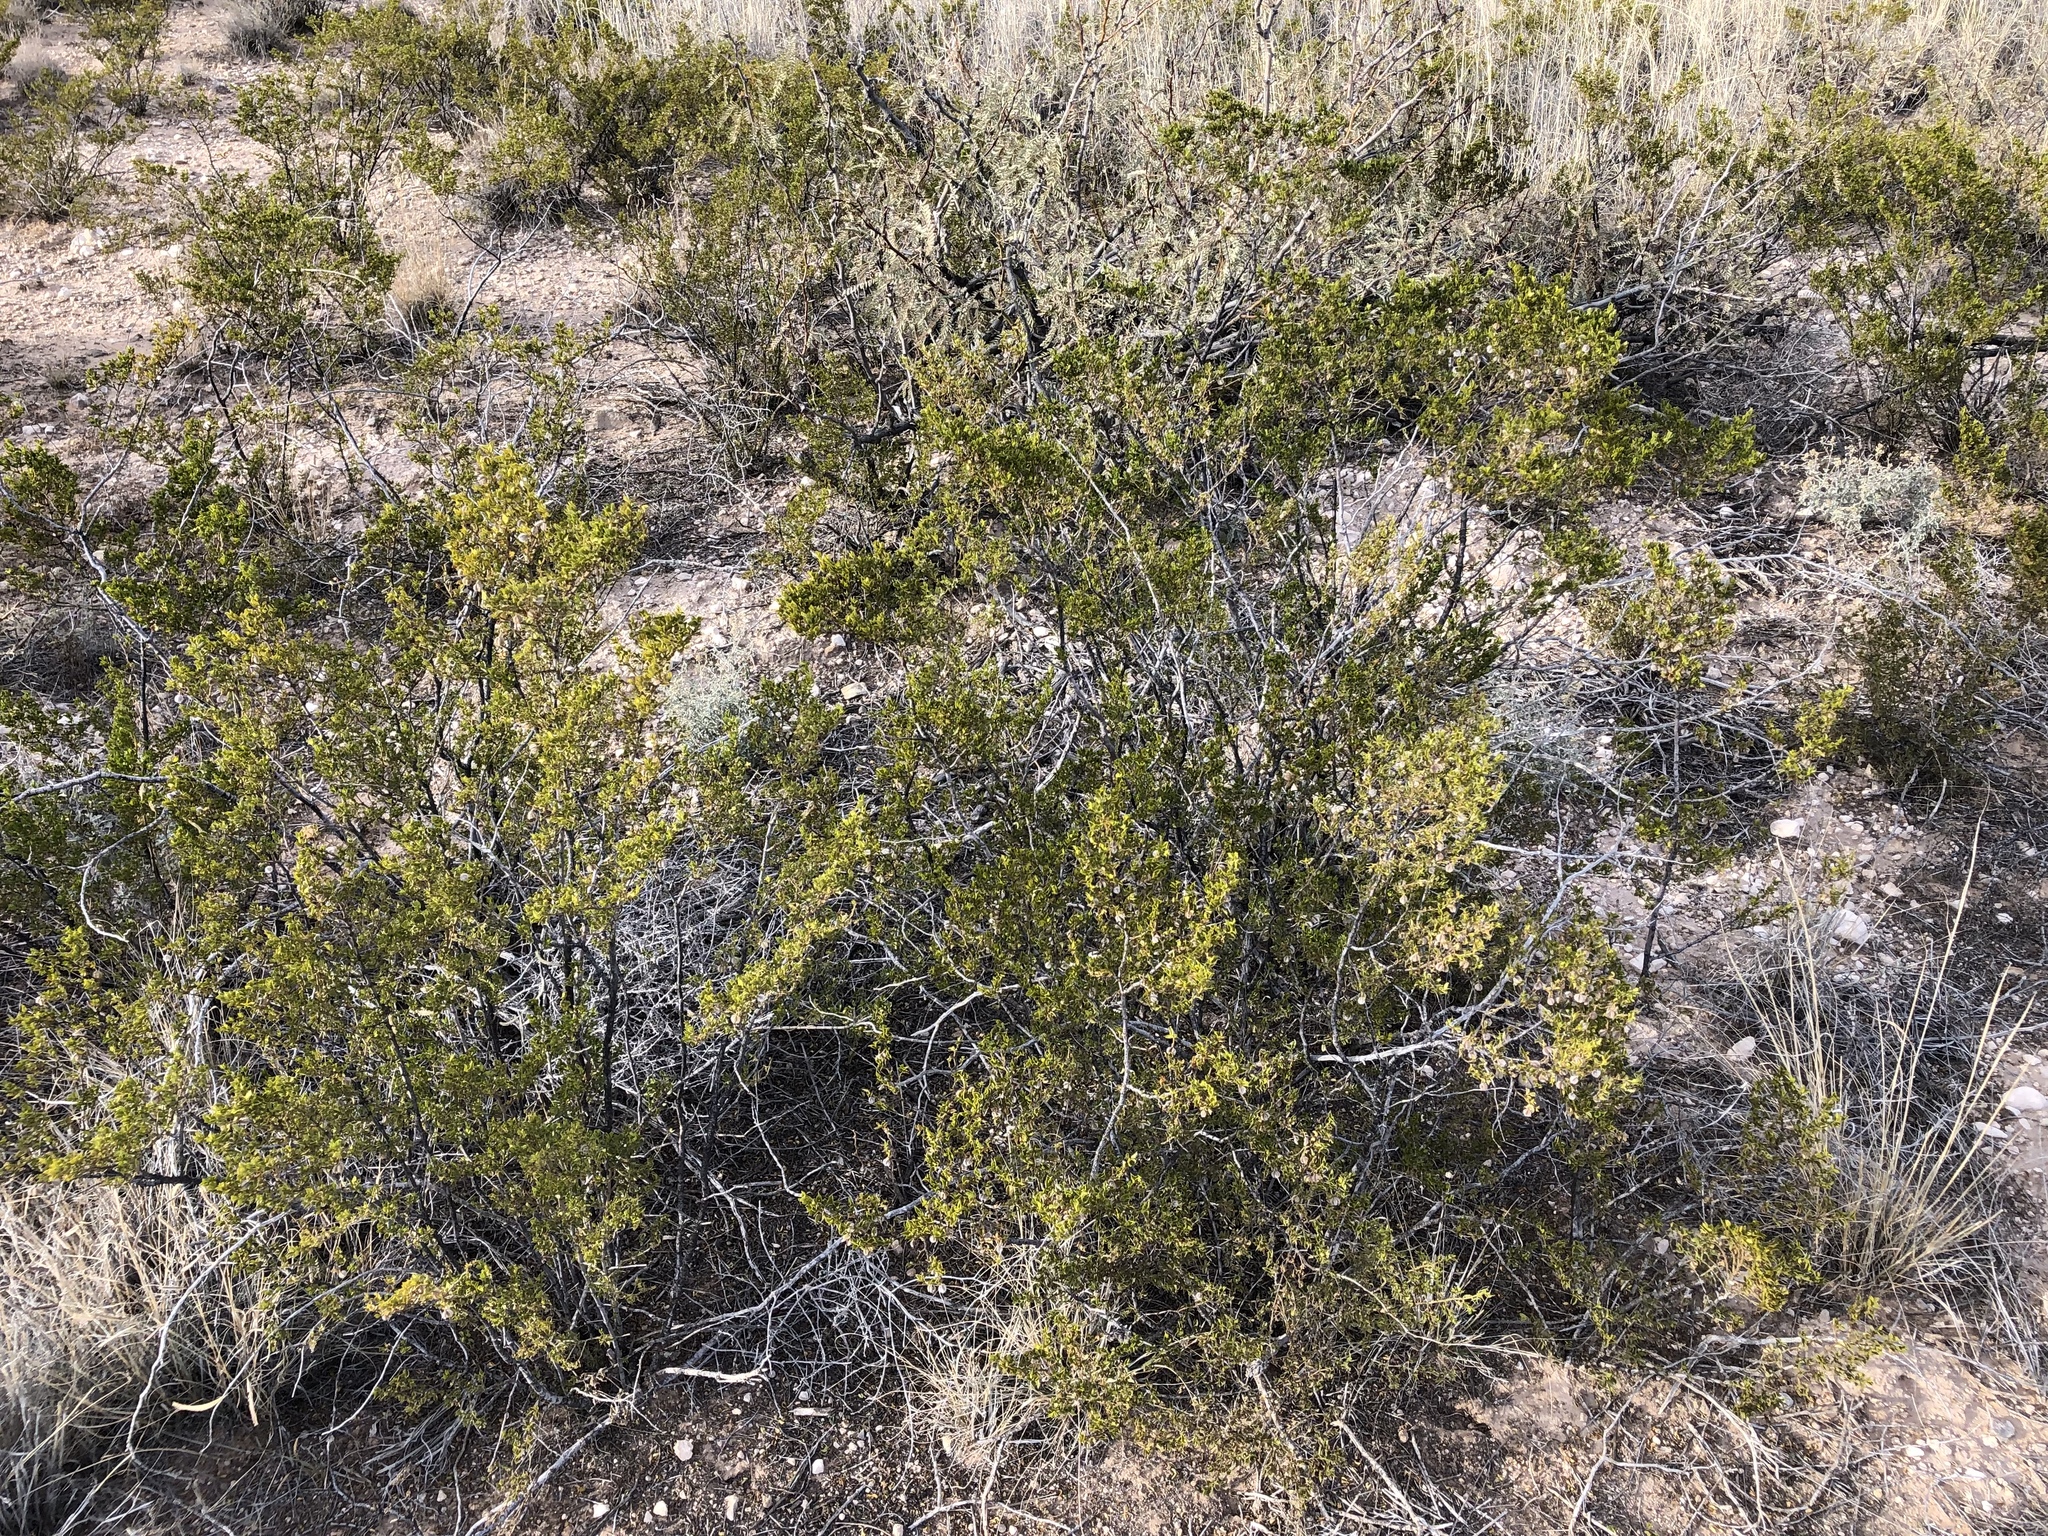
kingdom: Plantae
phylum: Tracheophyta
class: Magnoliopsida
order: Zygophyllales
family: Zygophyllaceae
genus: Larrea
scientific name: Larrea tridentata
